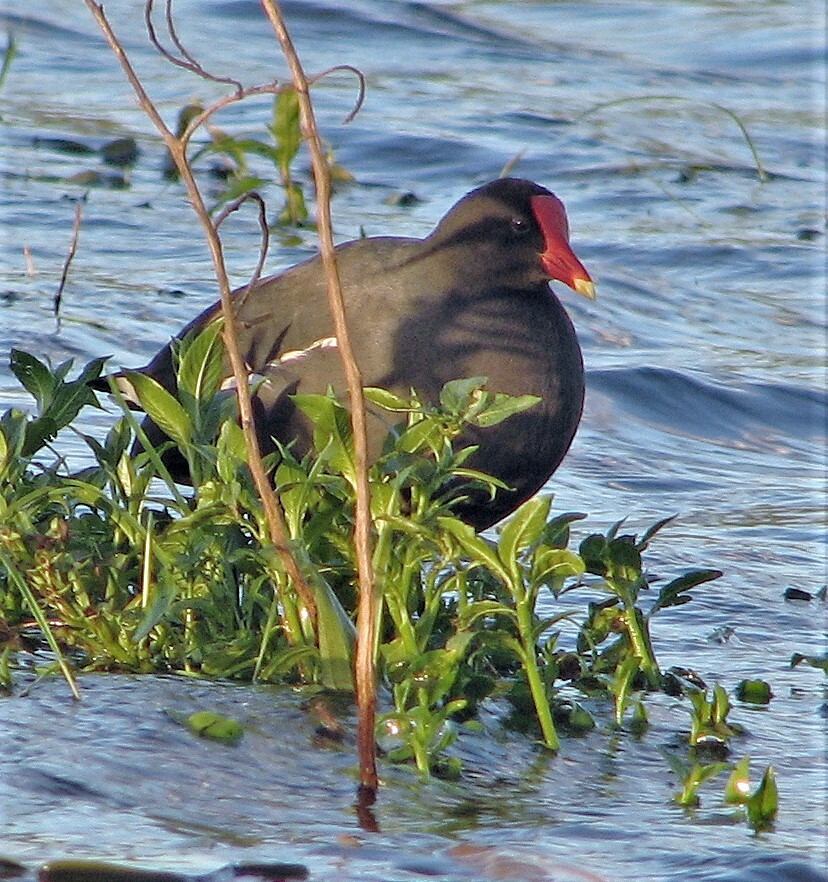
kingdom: Animalia
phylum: Chordata
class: Aves
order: Gruiformes
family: Rallidae
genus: Gallinula
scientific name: Gallinula chloropus
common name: Common moorhen
